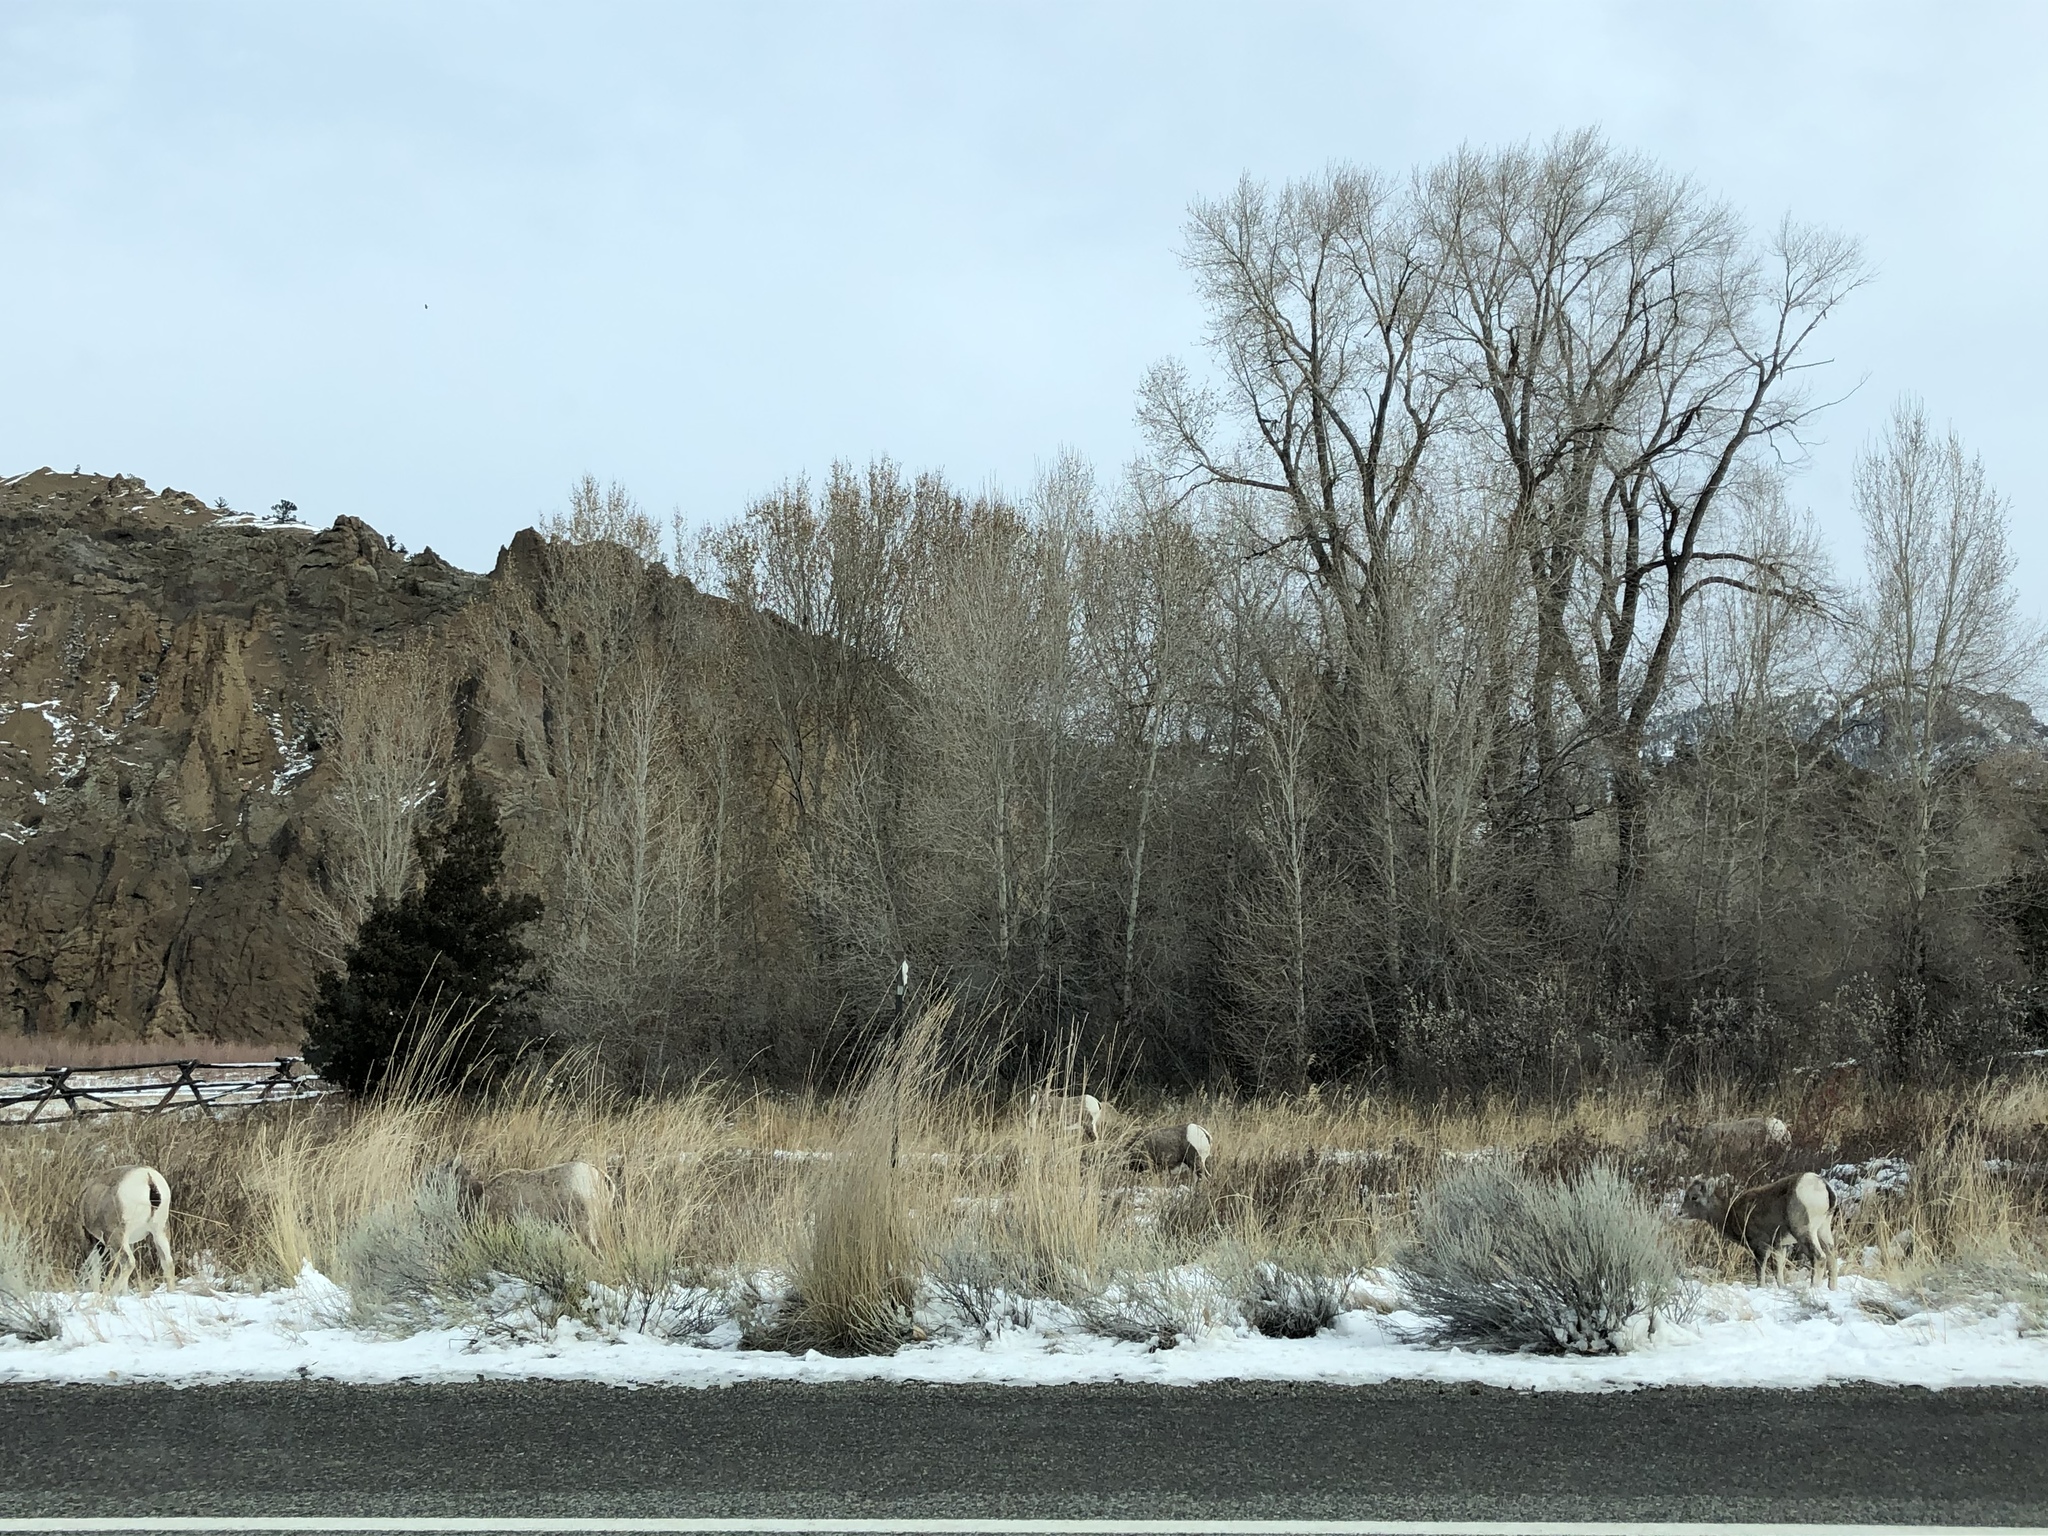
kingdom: Animalia
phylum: Chordata
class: Mammalia
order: Artiodactyla
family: Bovidae
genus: Ovis
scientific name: Ovis canadensis
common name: Bighorn sheep
